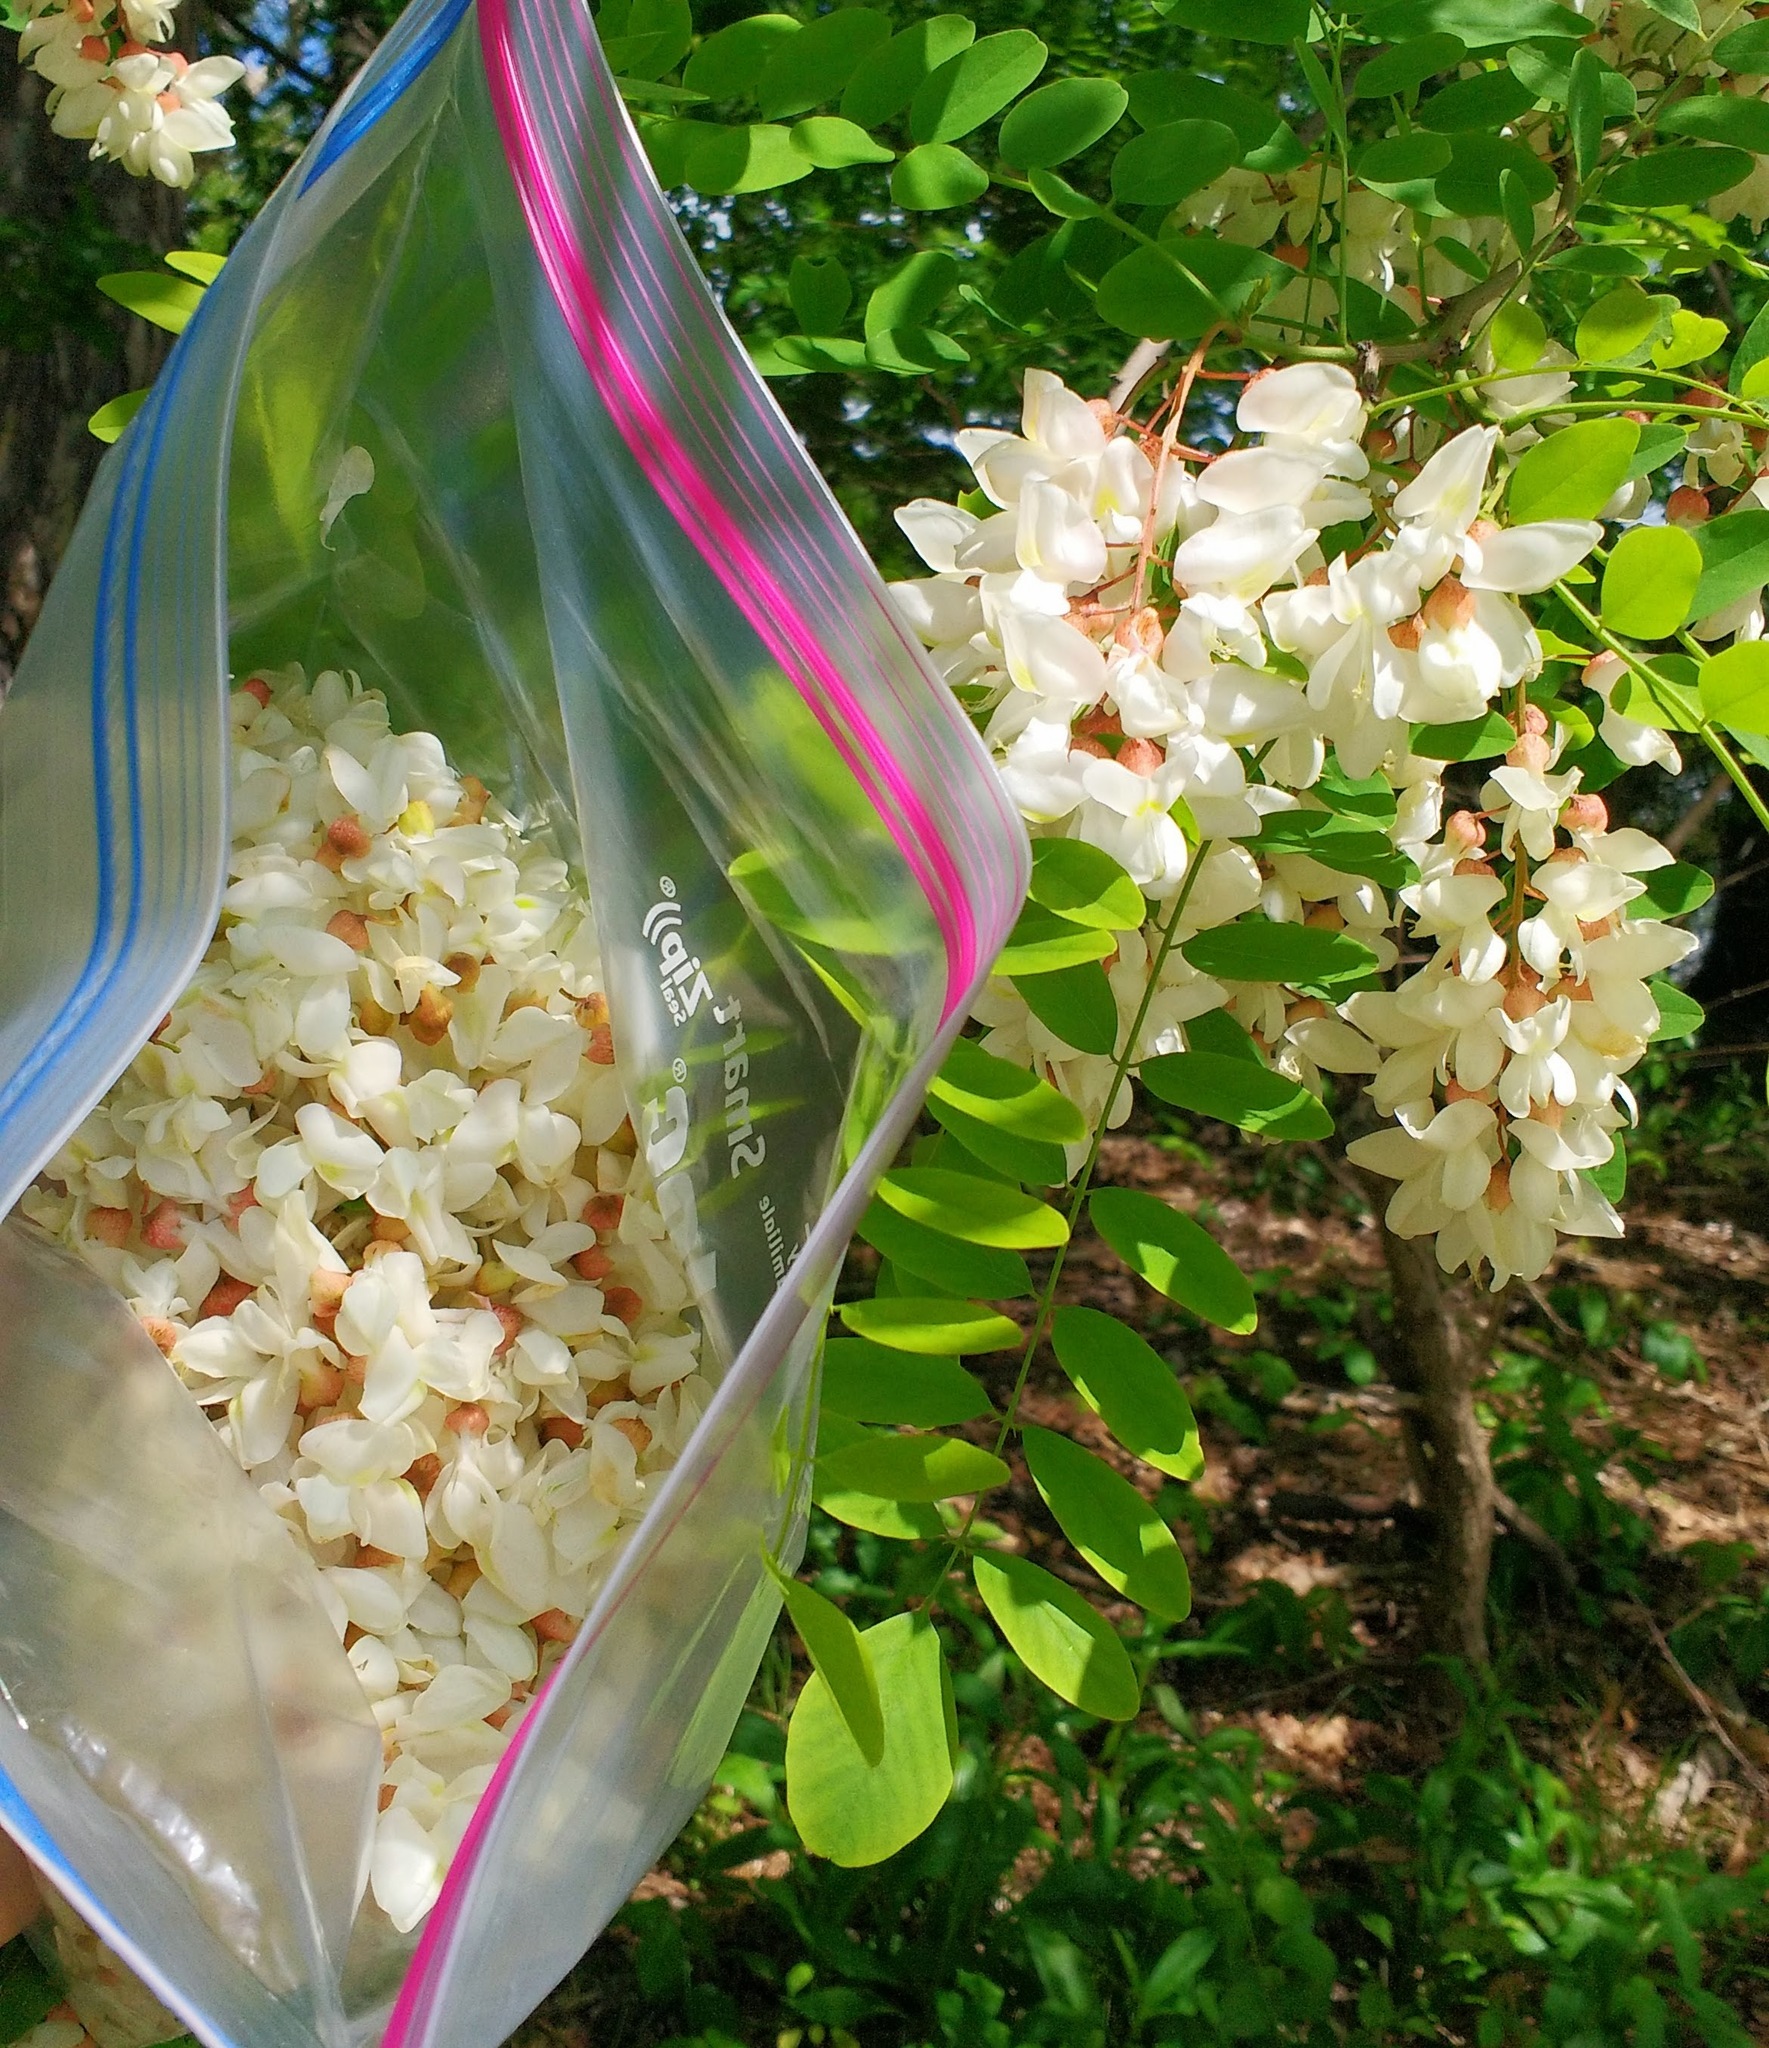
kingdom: Plantae
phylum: Tracheophyta
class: Magnoliopsida
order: Fabales
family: Fabaceae
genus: Robinia
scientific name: Robinia pseudoacacia
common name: Black locust
